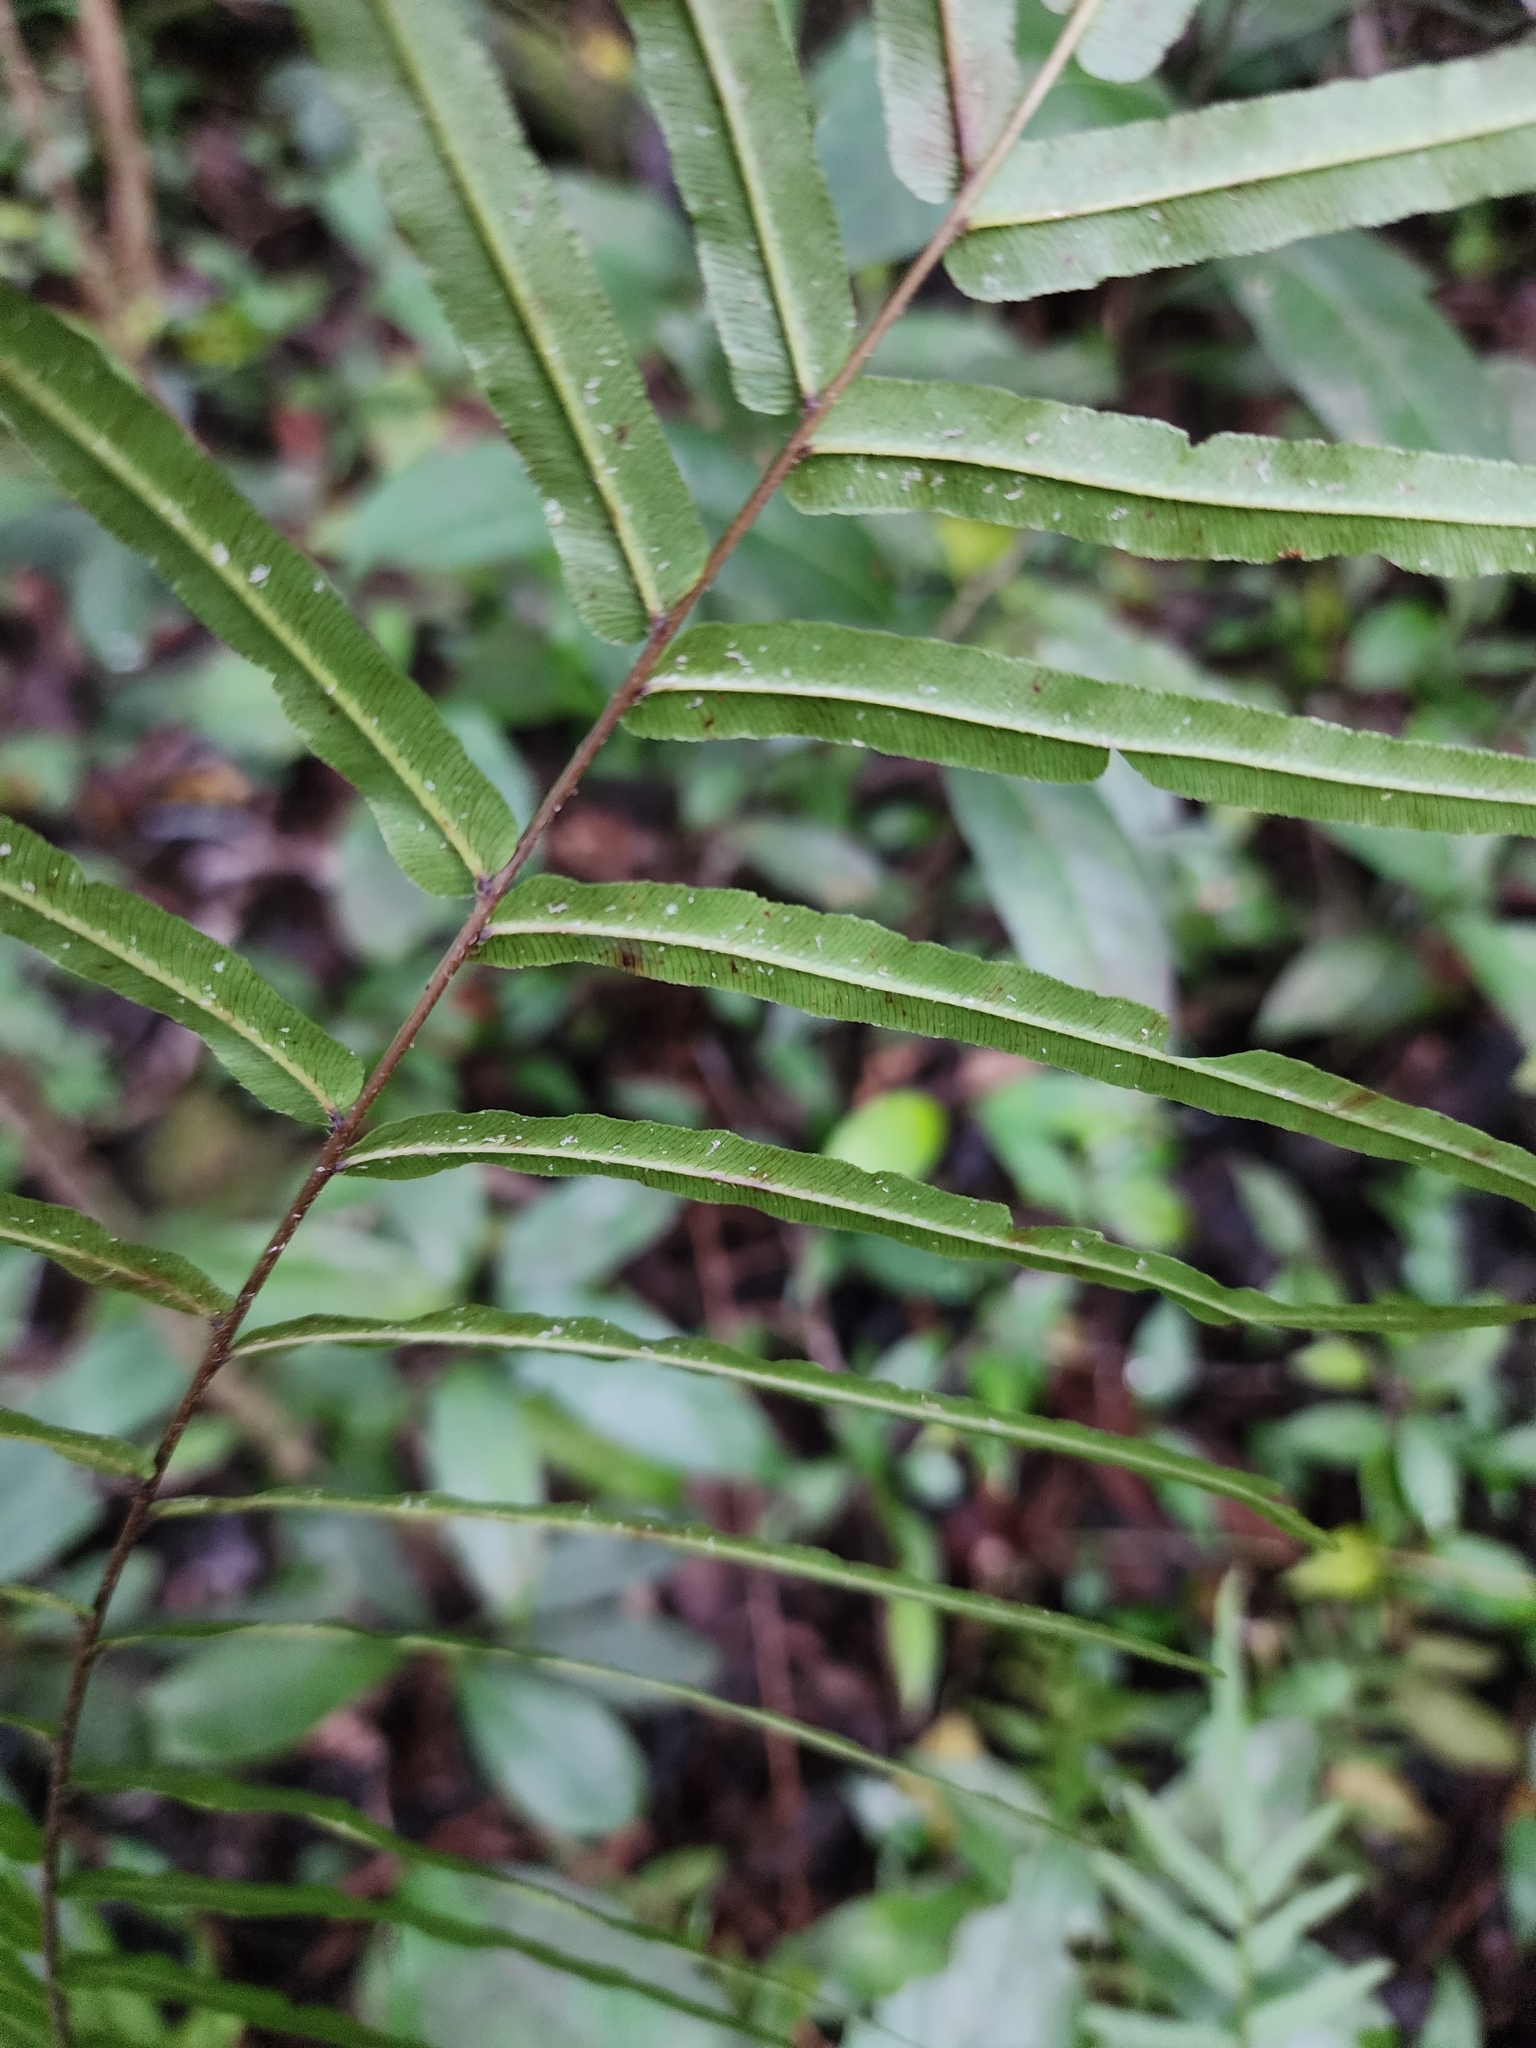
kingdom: Plantae
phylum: Tracheophyta
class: Polypodiopsida
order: Polypodiales
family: Pteridaceae
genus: Pteris
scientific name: Pteris vittata
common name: Ladder brake
